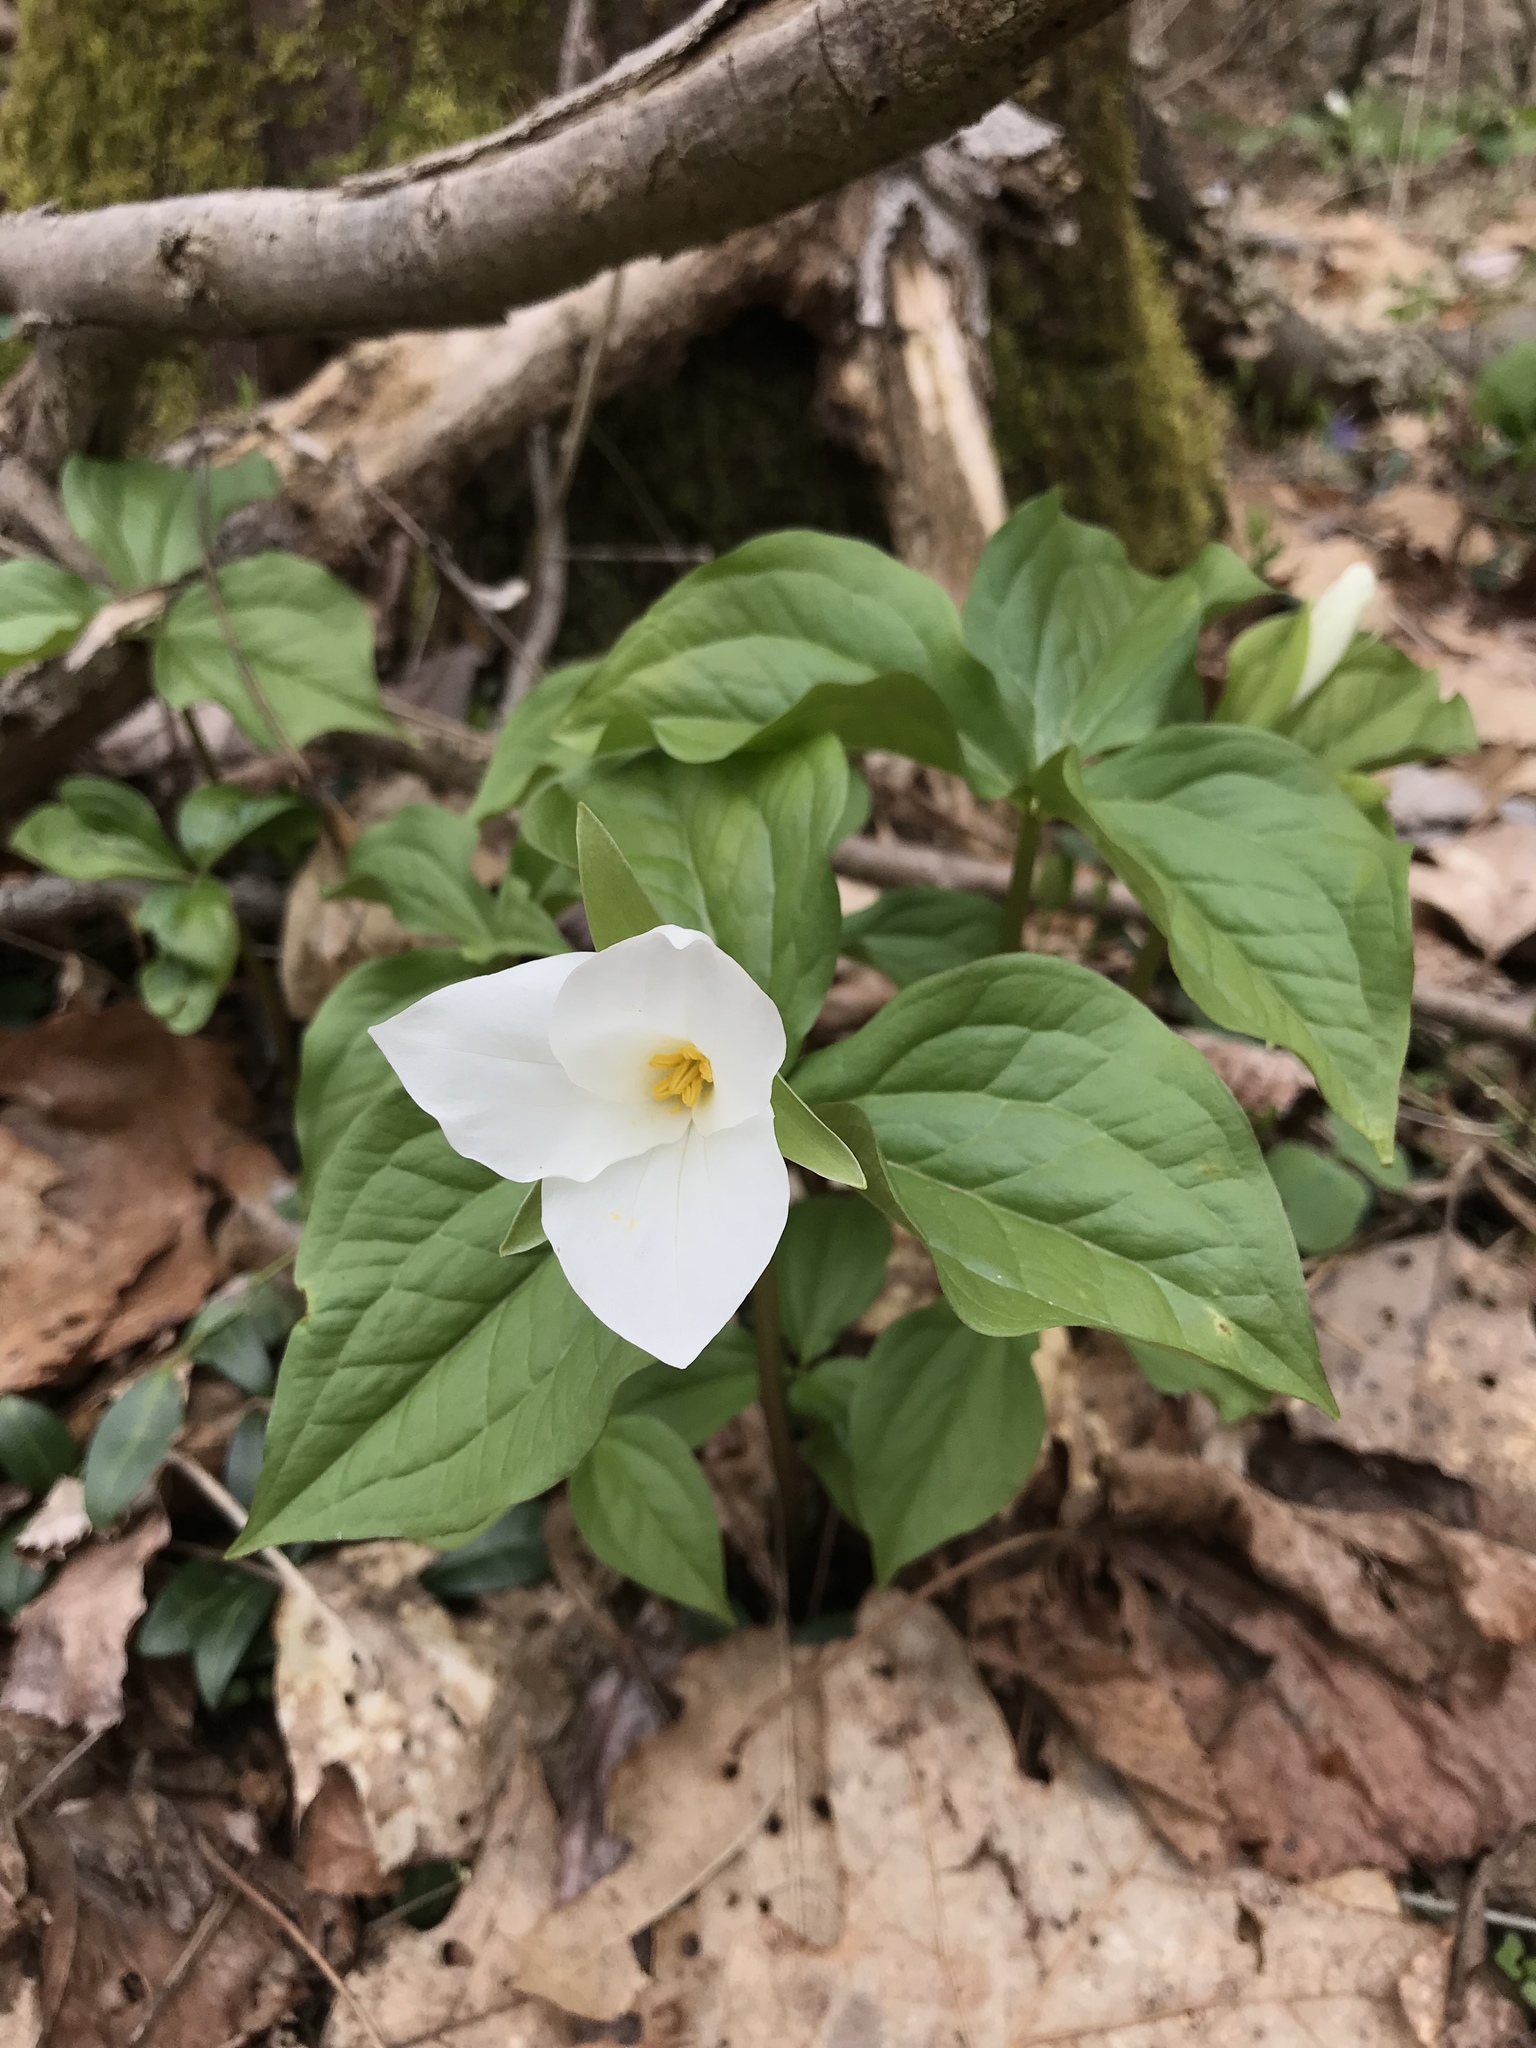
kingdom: Plantae
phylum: Tracheophyta
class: Liliopsida
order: Liliales
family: Melanthiaceae
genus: Trillium
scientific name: Trillium grandiflorum
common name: Great white trillium
